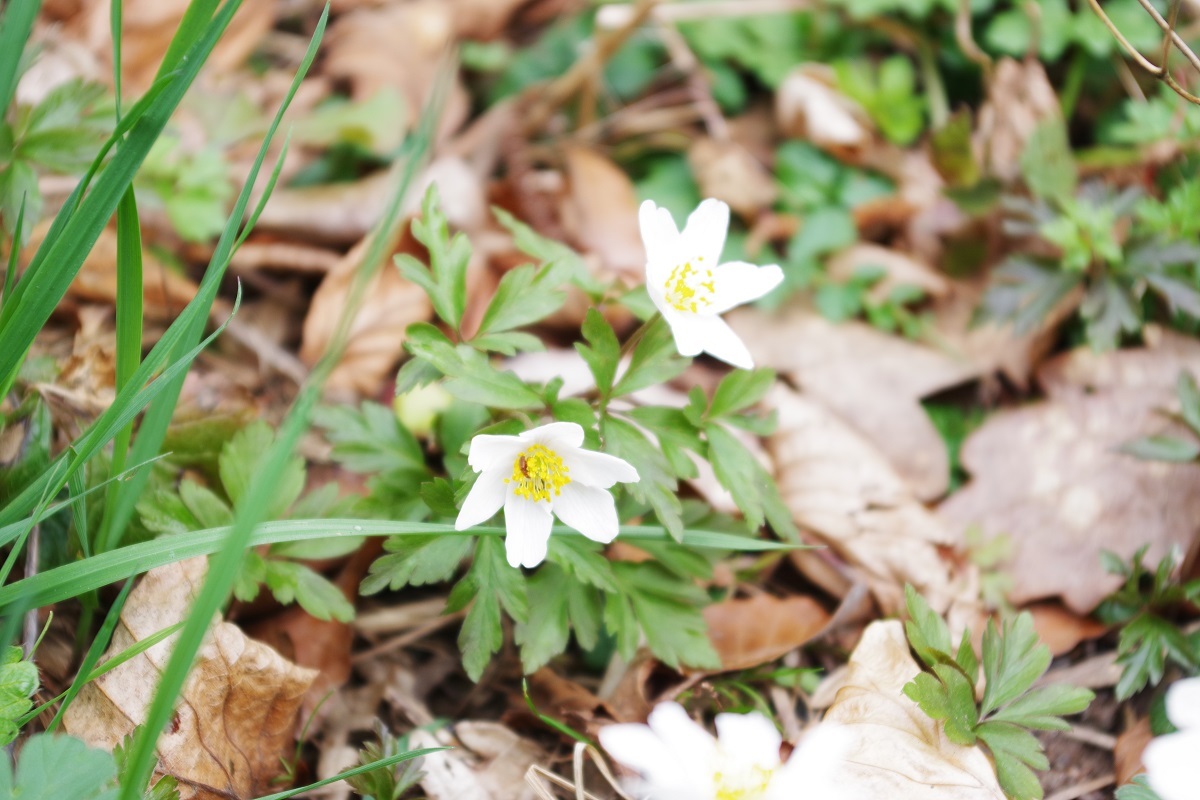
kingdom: Plantae
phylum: Tracheophyta
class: Magnoliopsida
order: Ranunculales
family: Ranunculaceae
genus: Anemone
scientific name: Anemone nemorosa
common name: Wood anemone
